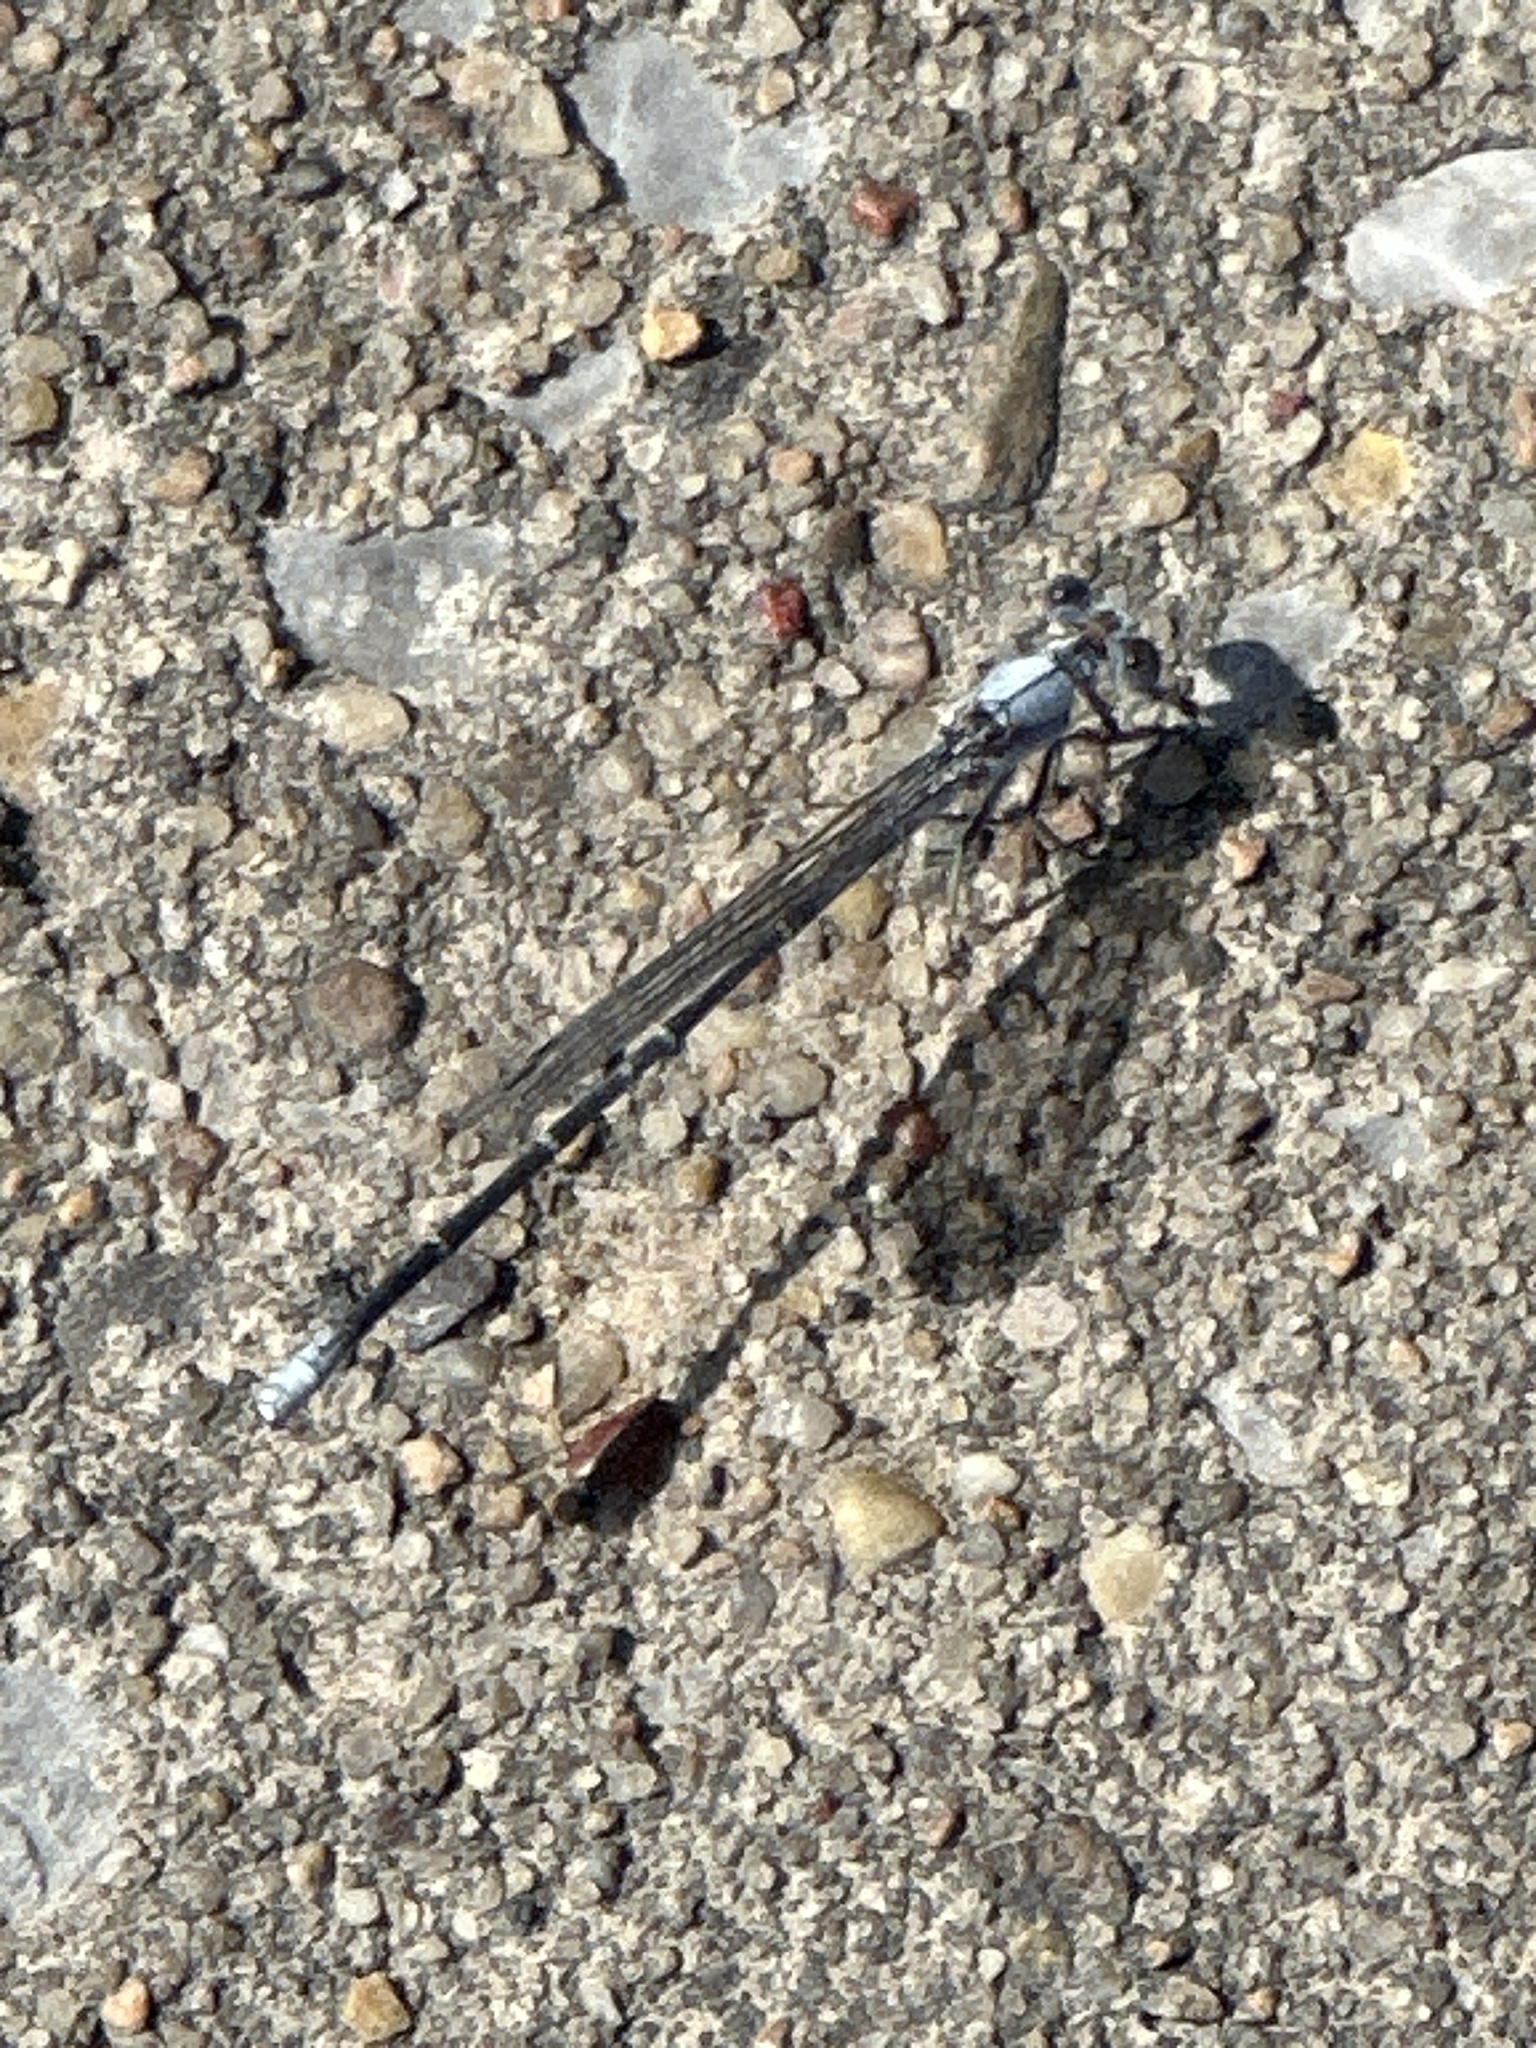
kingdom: Animalia
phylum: Arthropoda
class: Insecta
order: Odonata
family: Coenagrionidae
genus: Argia
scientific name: Argia moesta
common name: Powdered dancer
